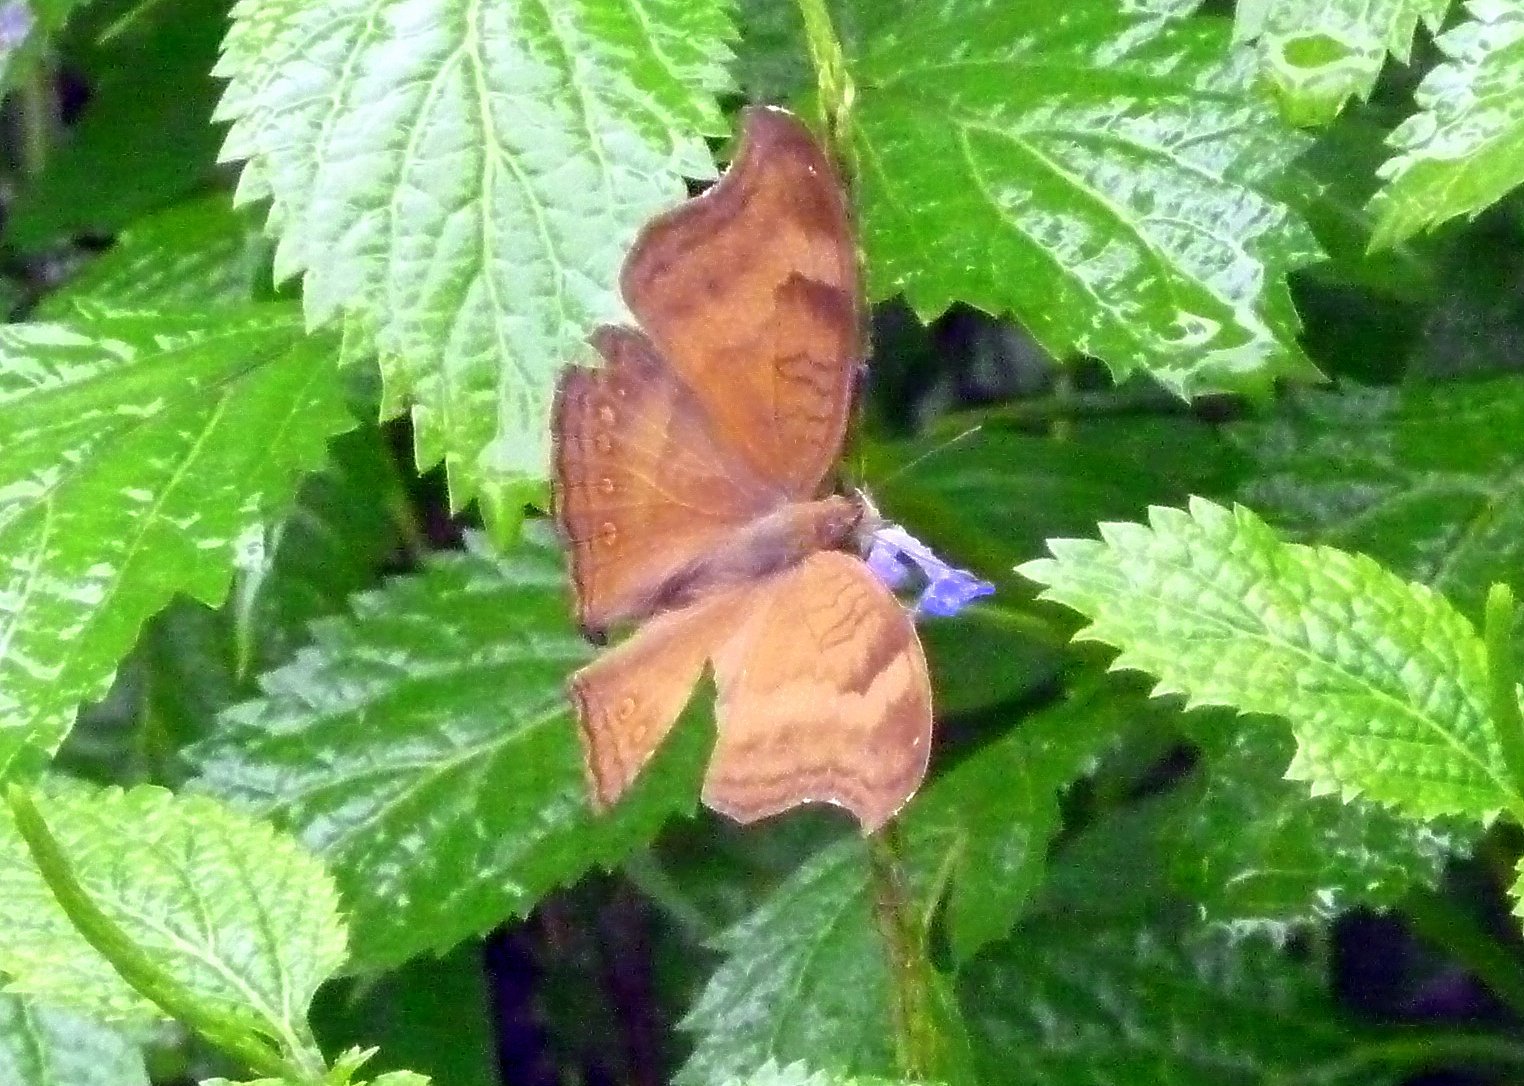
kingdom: Animalia
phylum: Arthropoda
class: Insecta
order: Lepidoptera
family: Nymphalidae
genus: Junonia
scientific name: Junonia iphita
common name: Chocolate pansy
